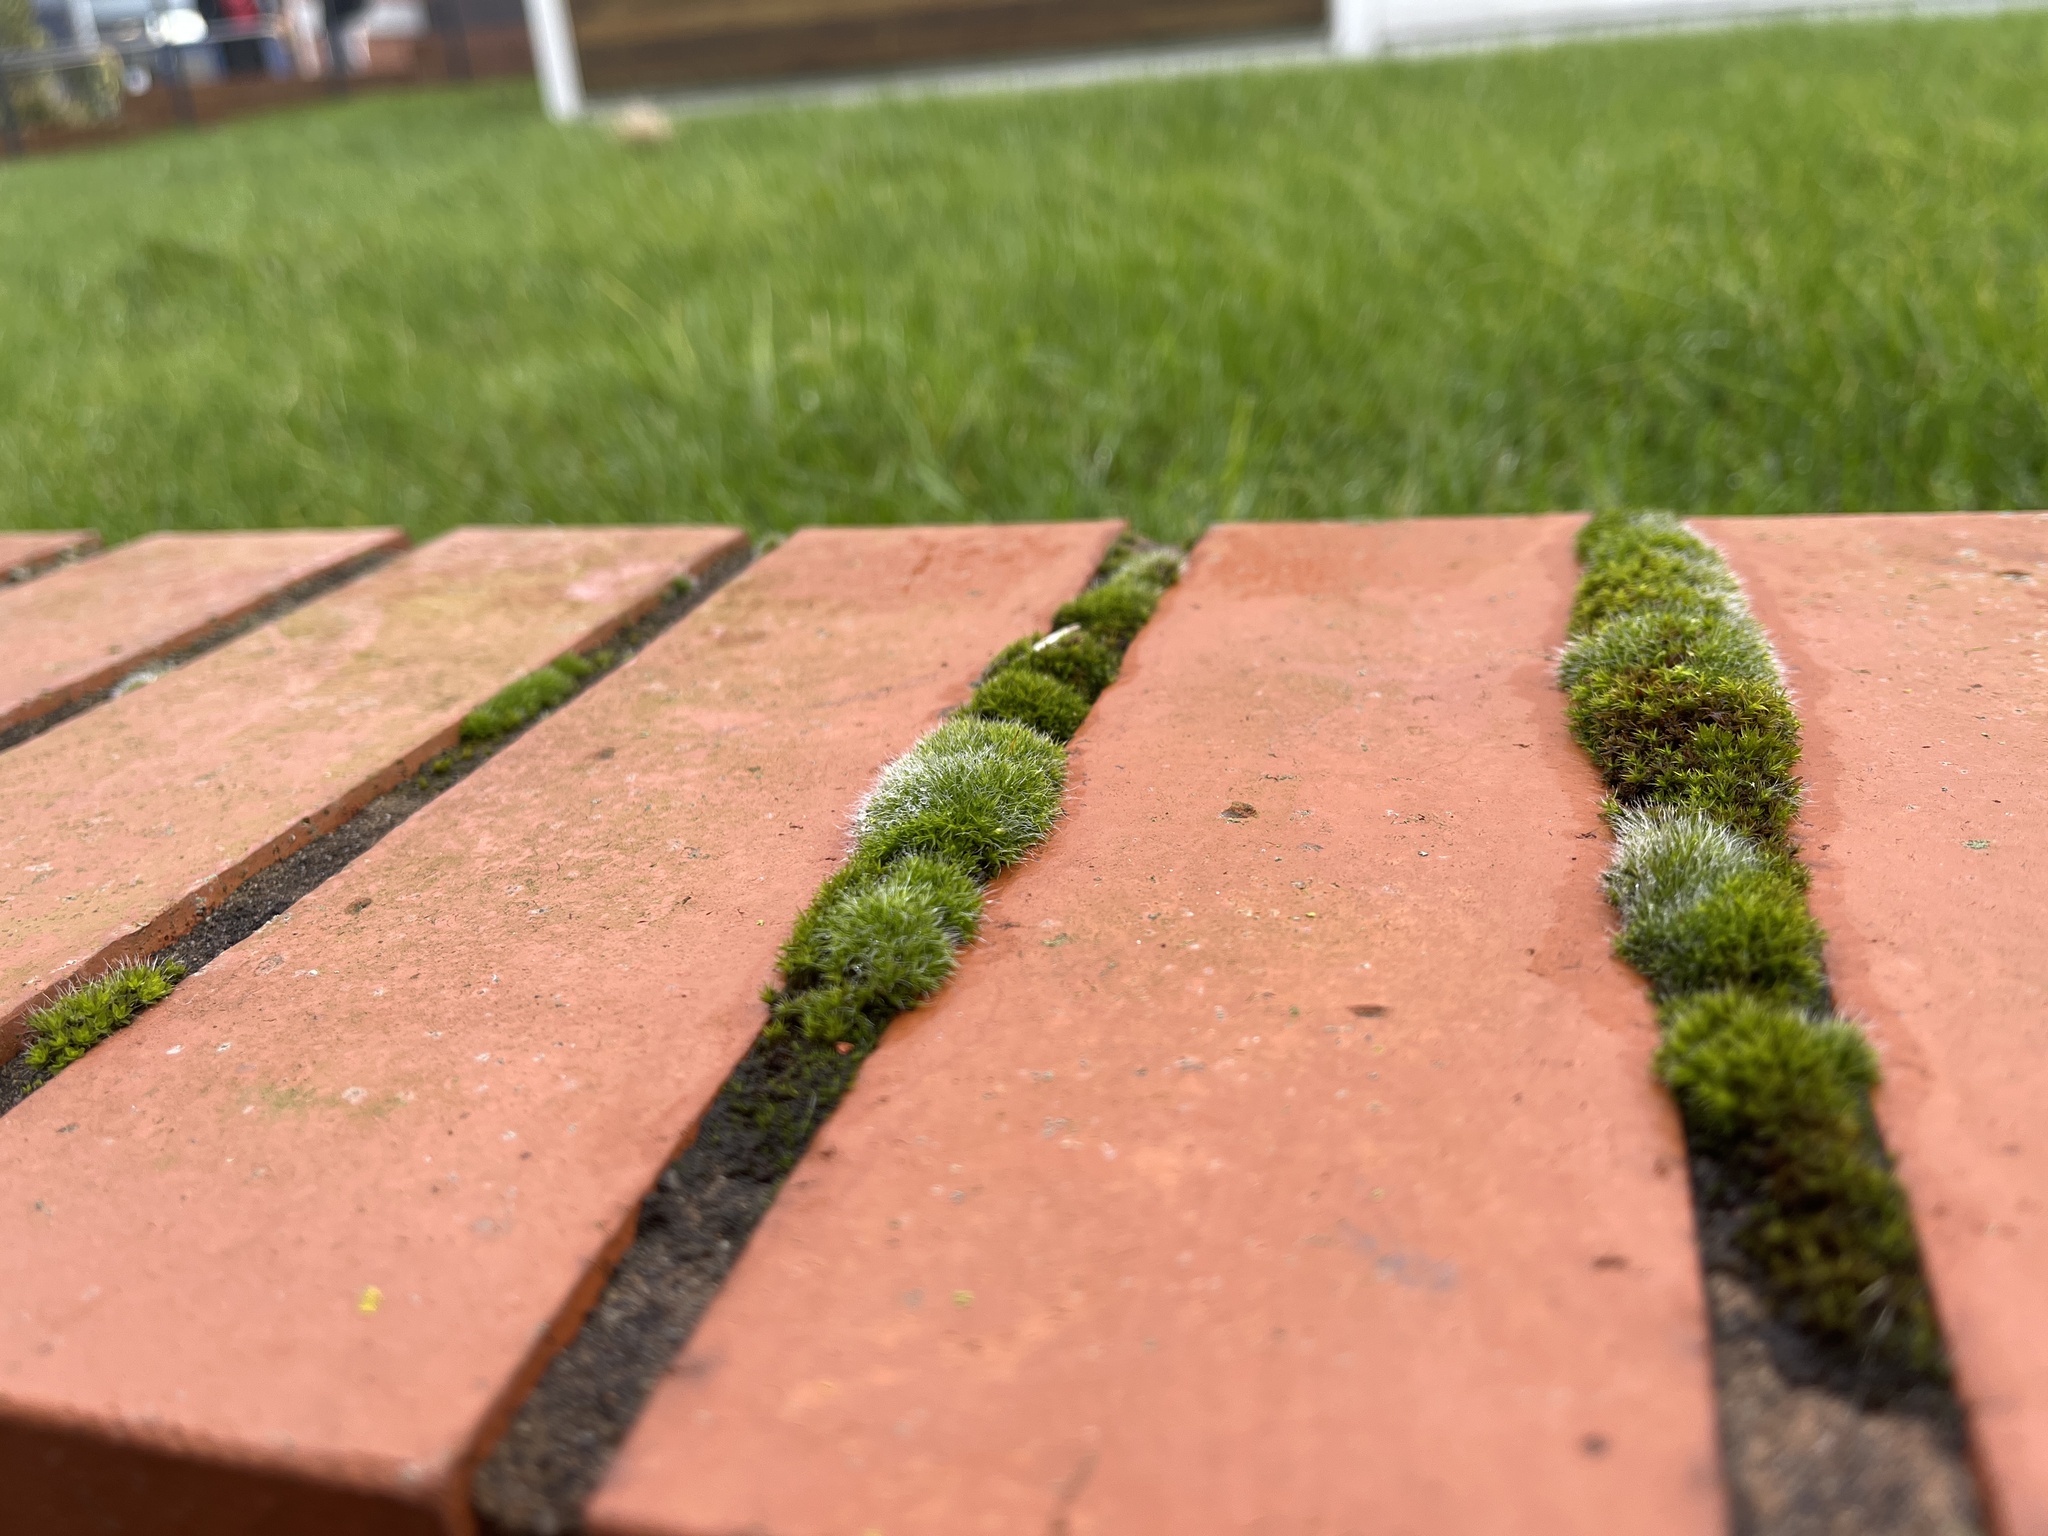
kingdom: Plantae
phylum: Bryophyta
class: Bryopsida
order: Grimmiales
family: Grimmiaceae
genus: Grimmia
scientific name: Grimmia pulvinata
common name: Grey-cushioned grimmia
